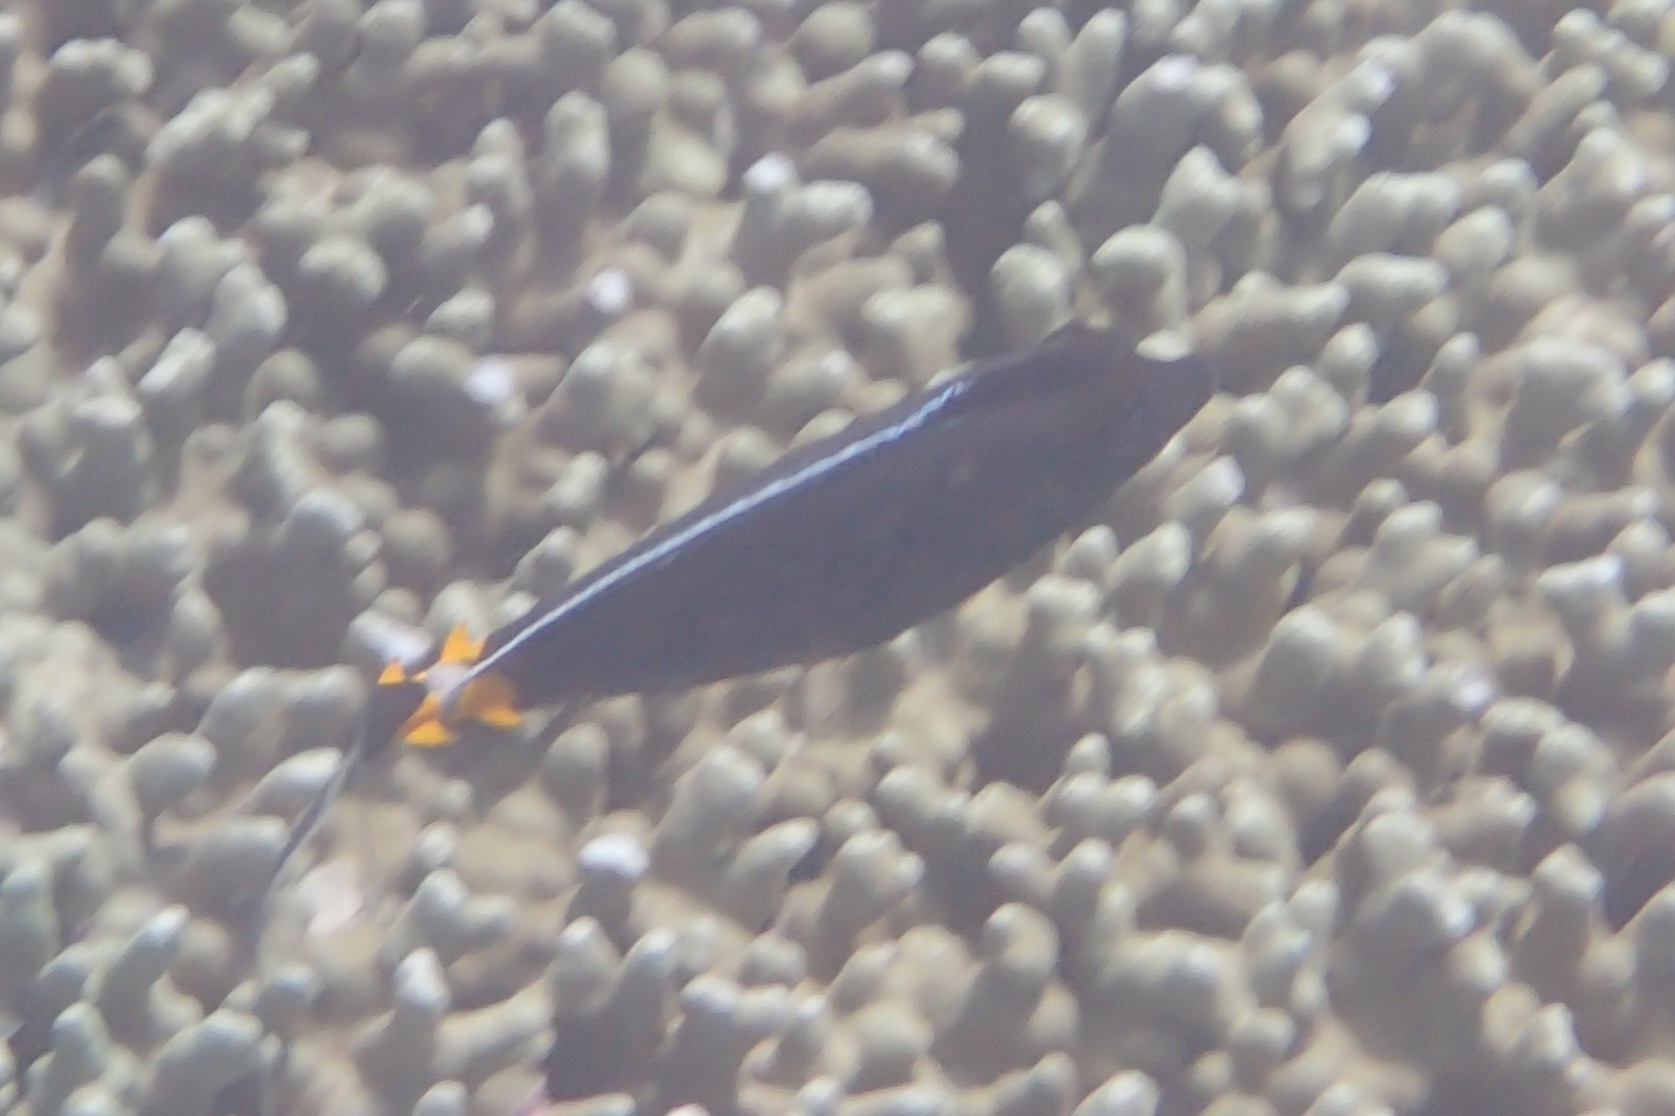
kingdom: Animalia
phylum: Chordata
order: Perciformes
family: Acanthuridae
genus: Naso
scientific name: Naso lituratus
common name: Orangespine unicornfish
